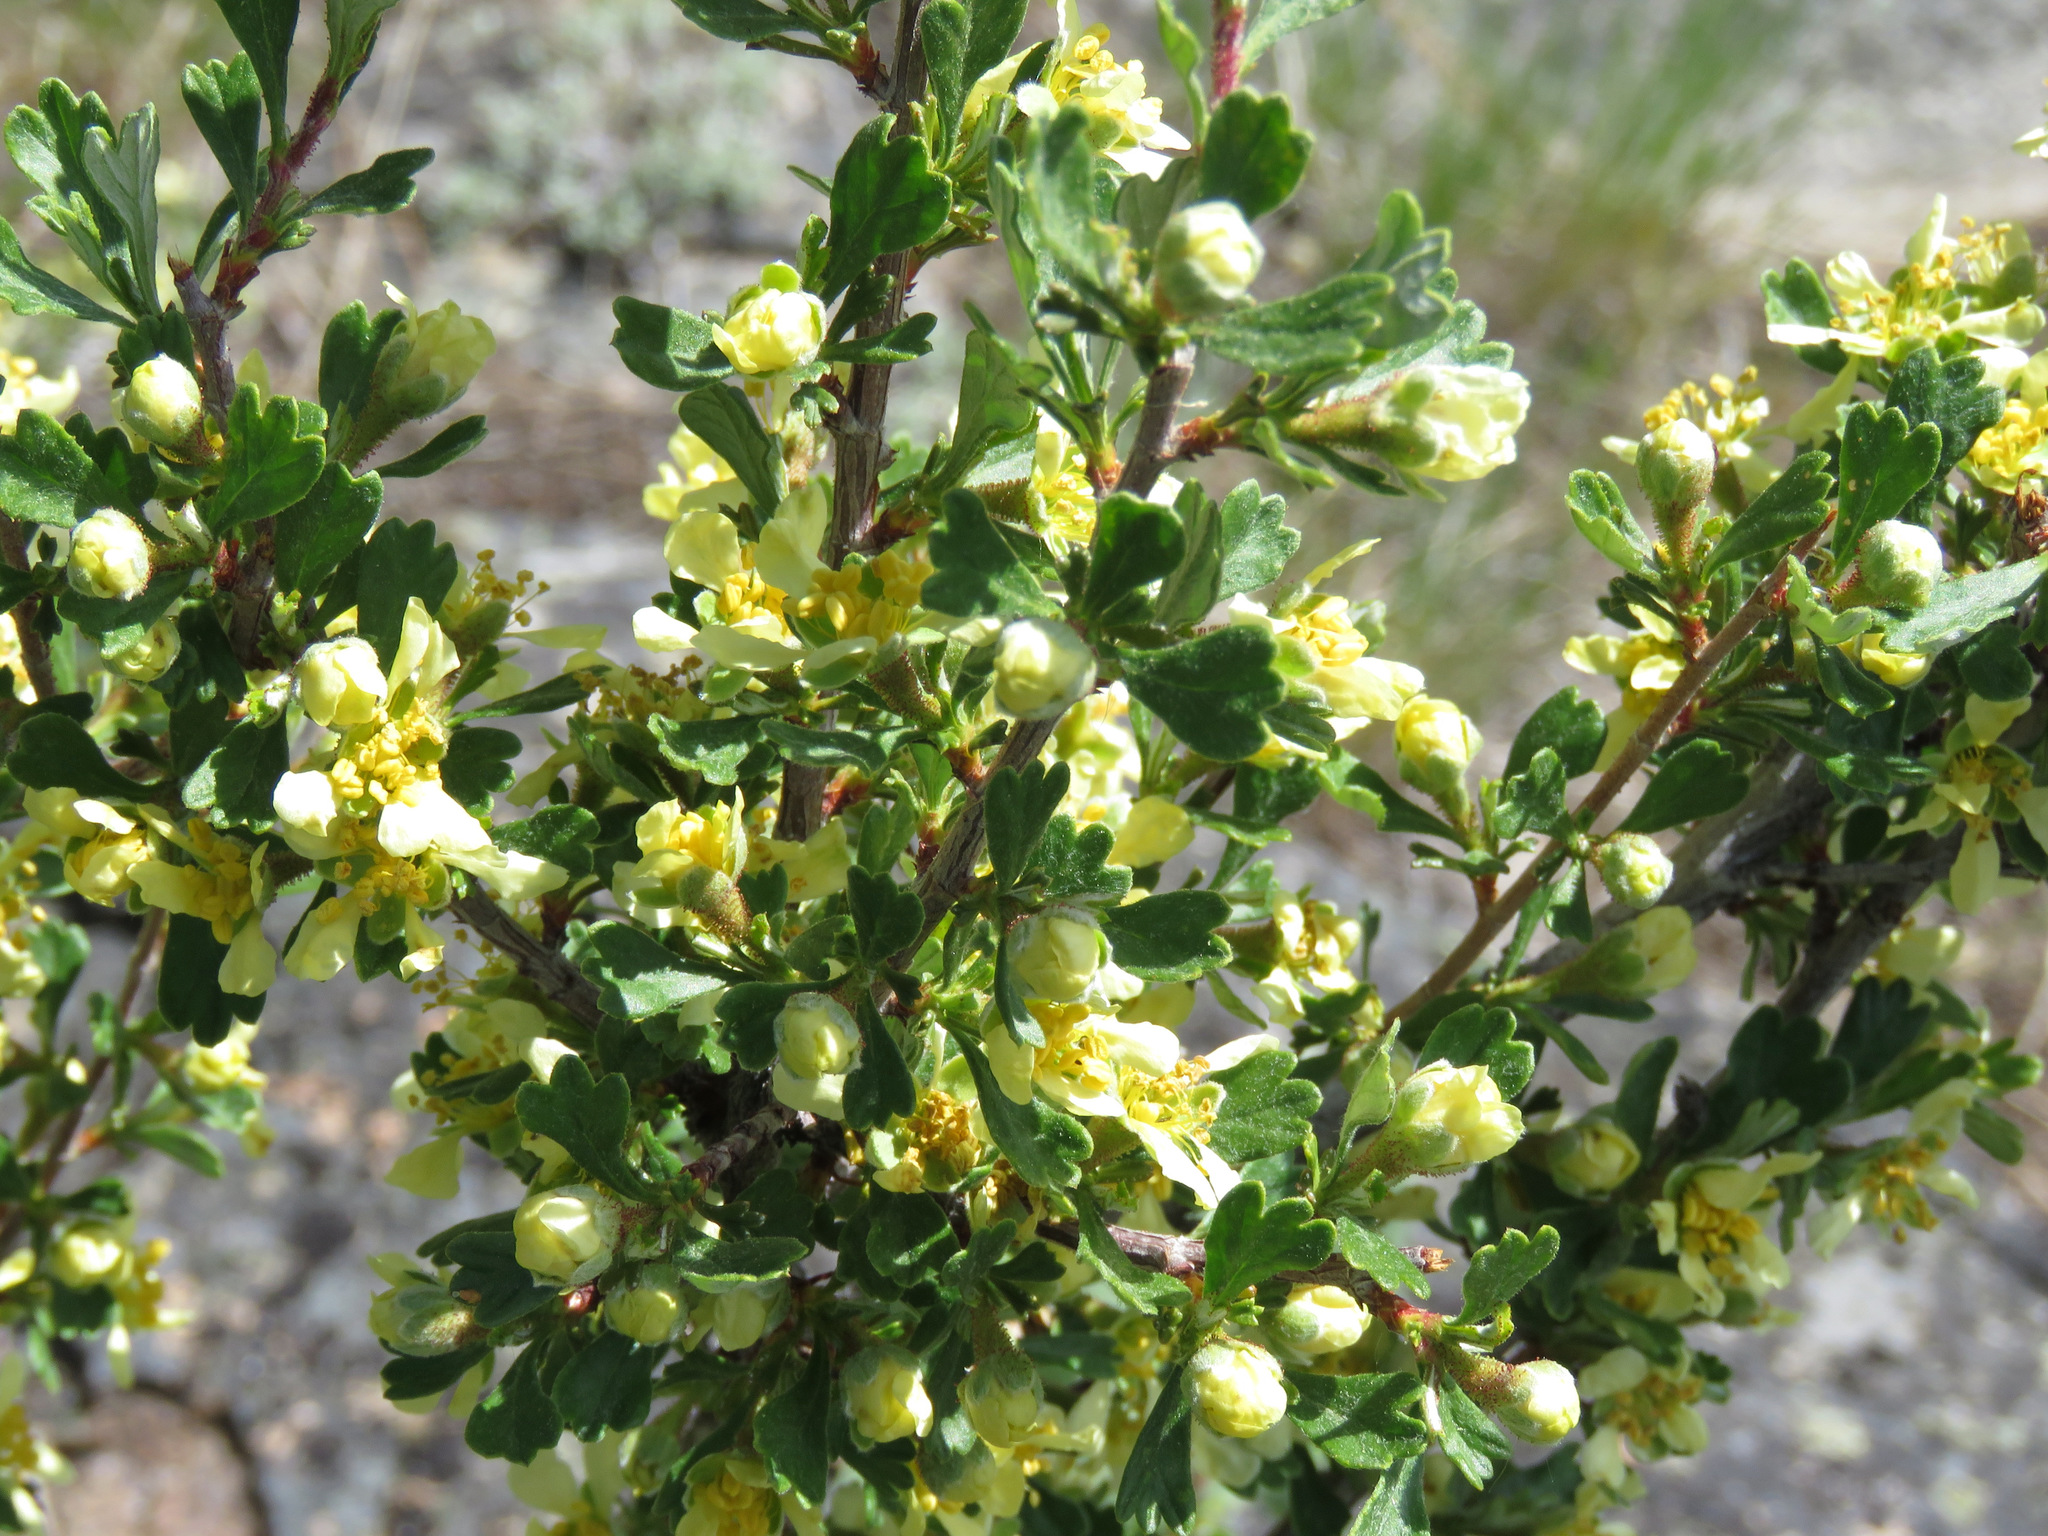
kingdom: Plantae
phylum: Tracheophyta
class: Magnoliopsida
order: Rosales
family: Rosaceae
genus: Purshia
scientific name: Purshia tridentata
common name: Antelope bitterbrush
